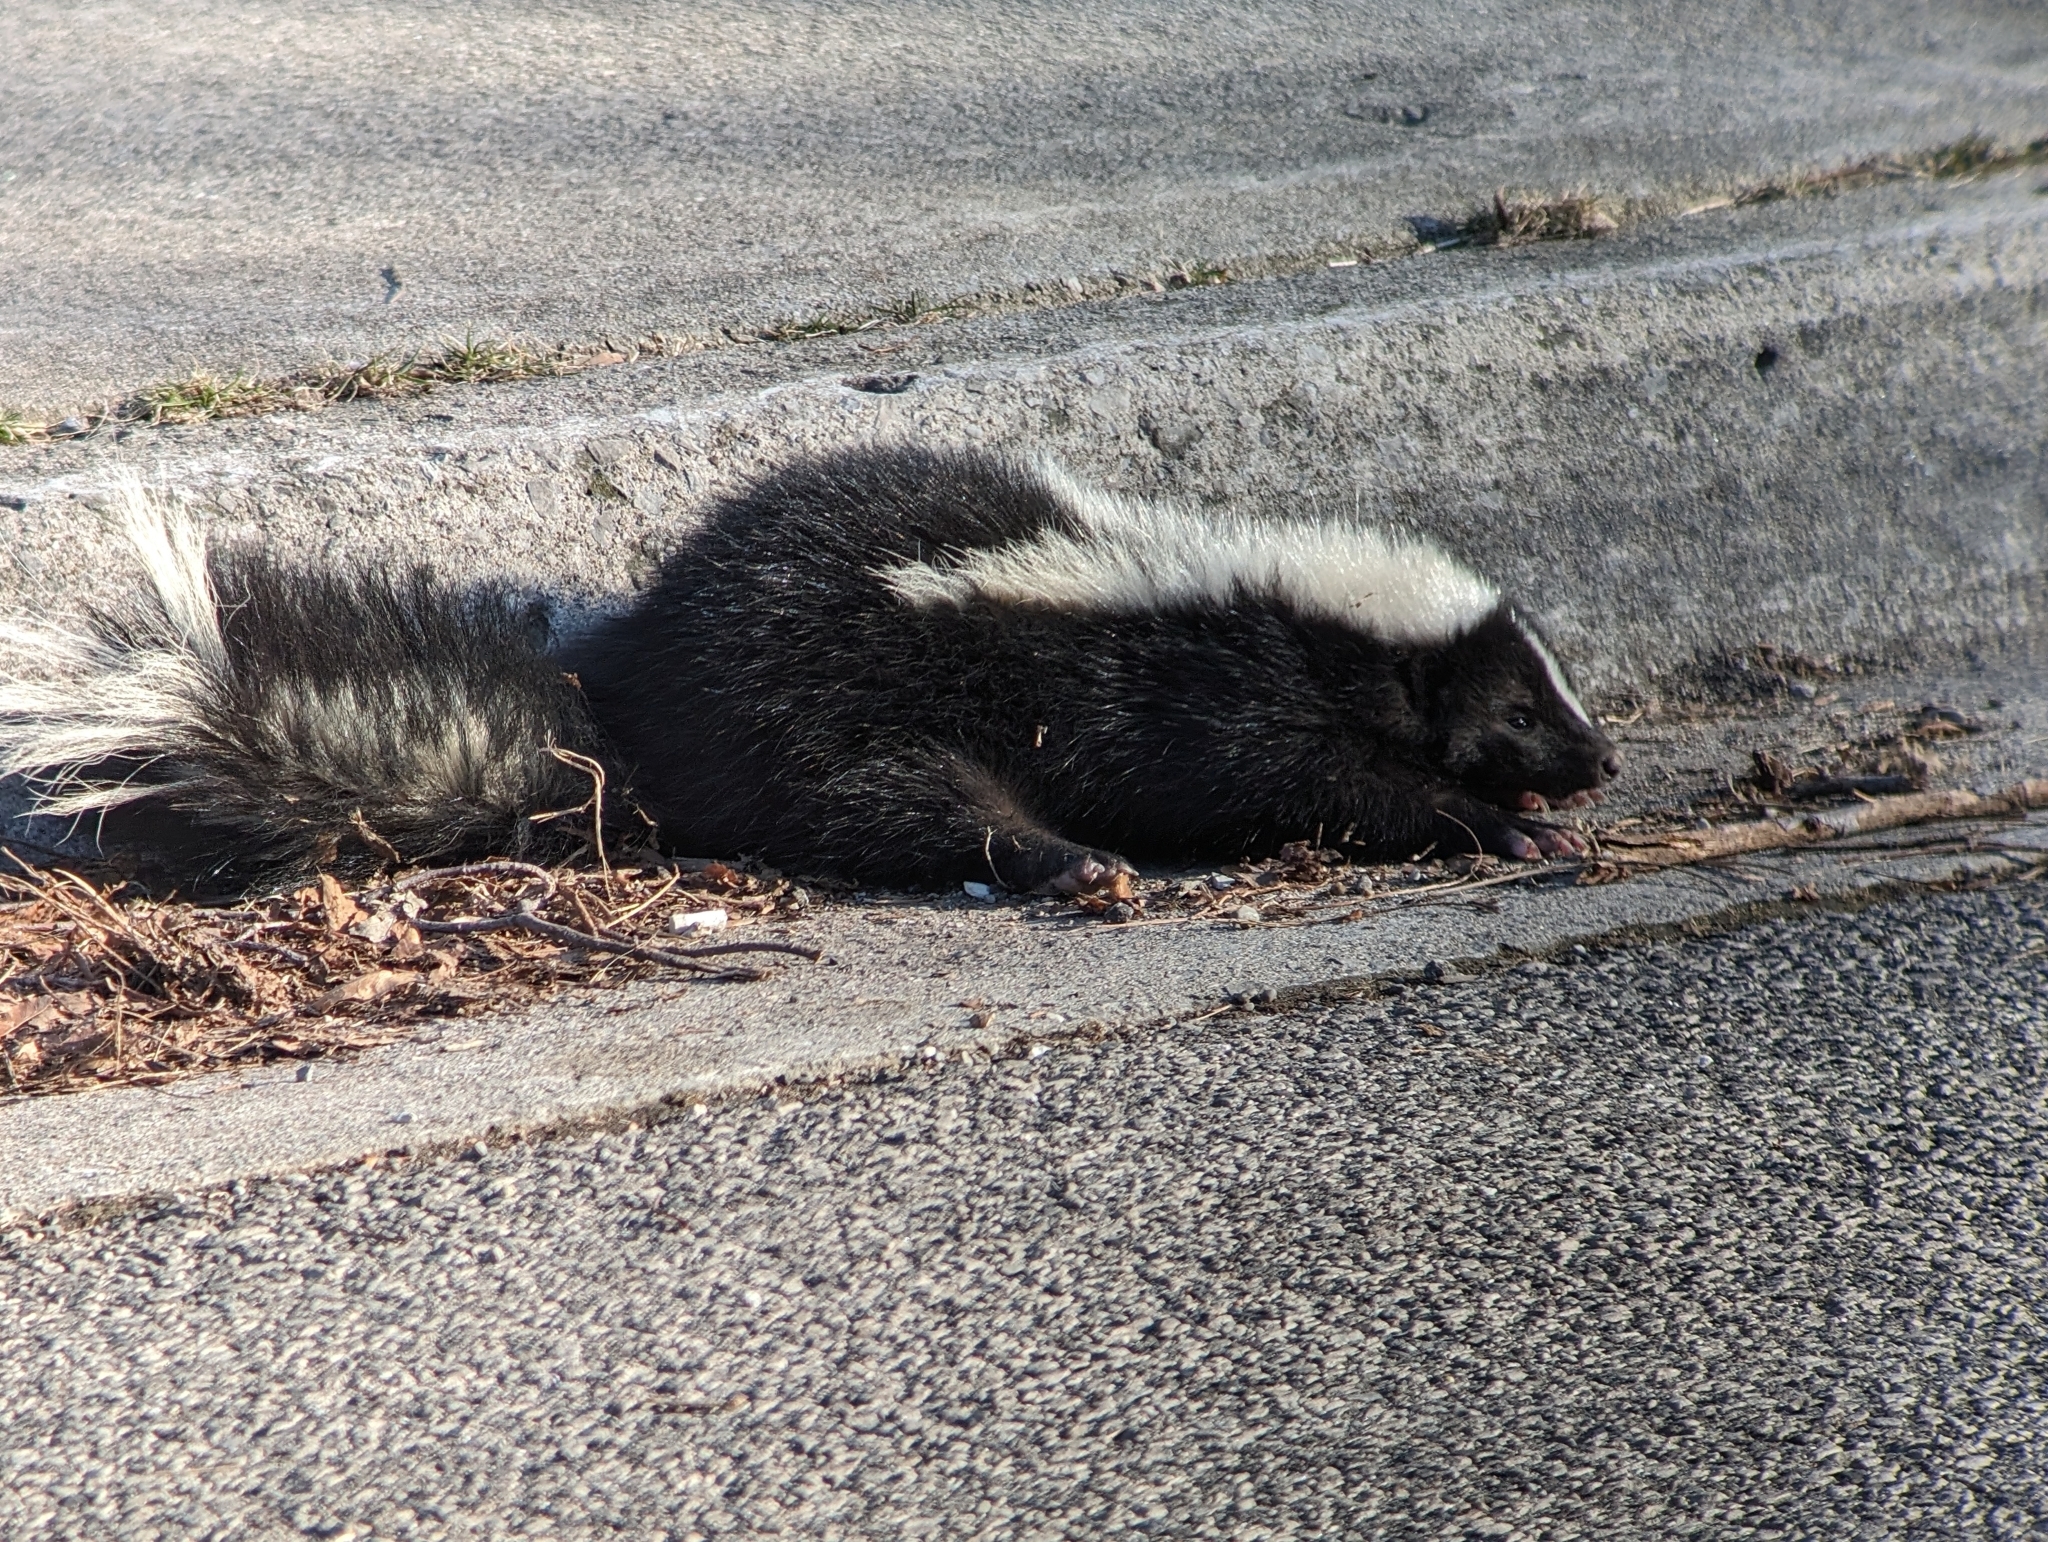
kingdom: Animalia
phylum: Chordata
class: Mammalia
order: Carnivora
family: Mephitidae
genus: Mephitis
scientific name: Mephitis mephitis
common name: Striped skunk
